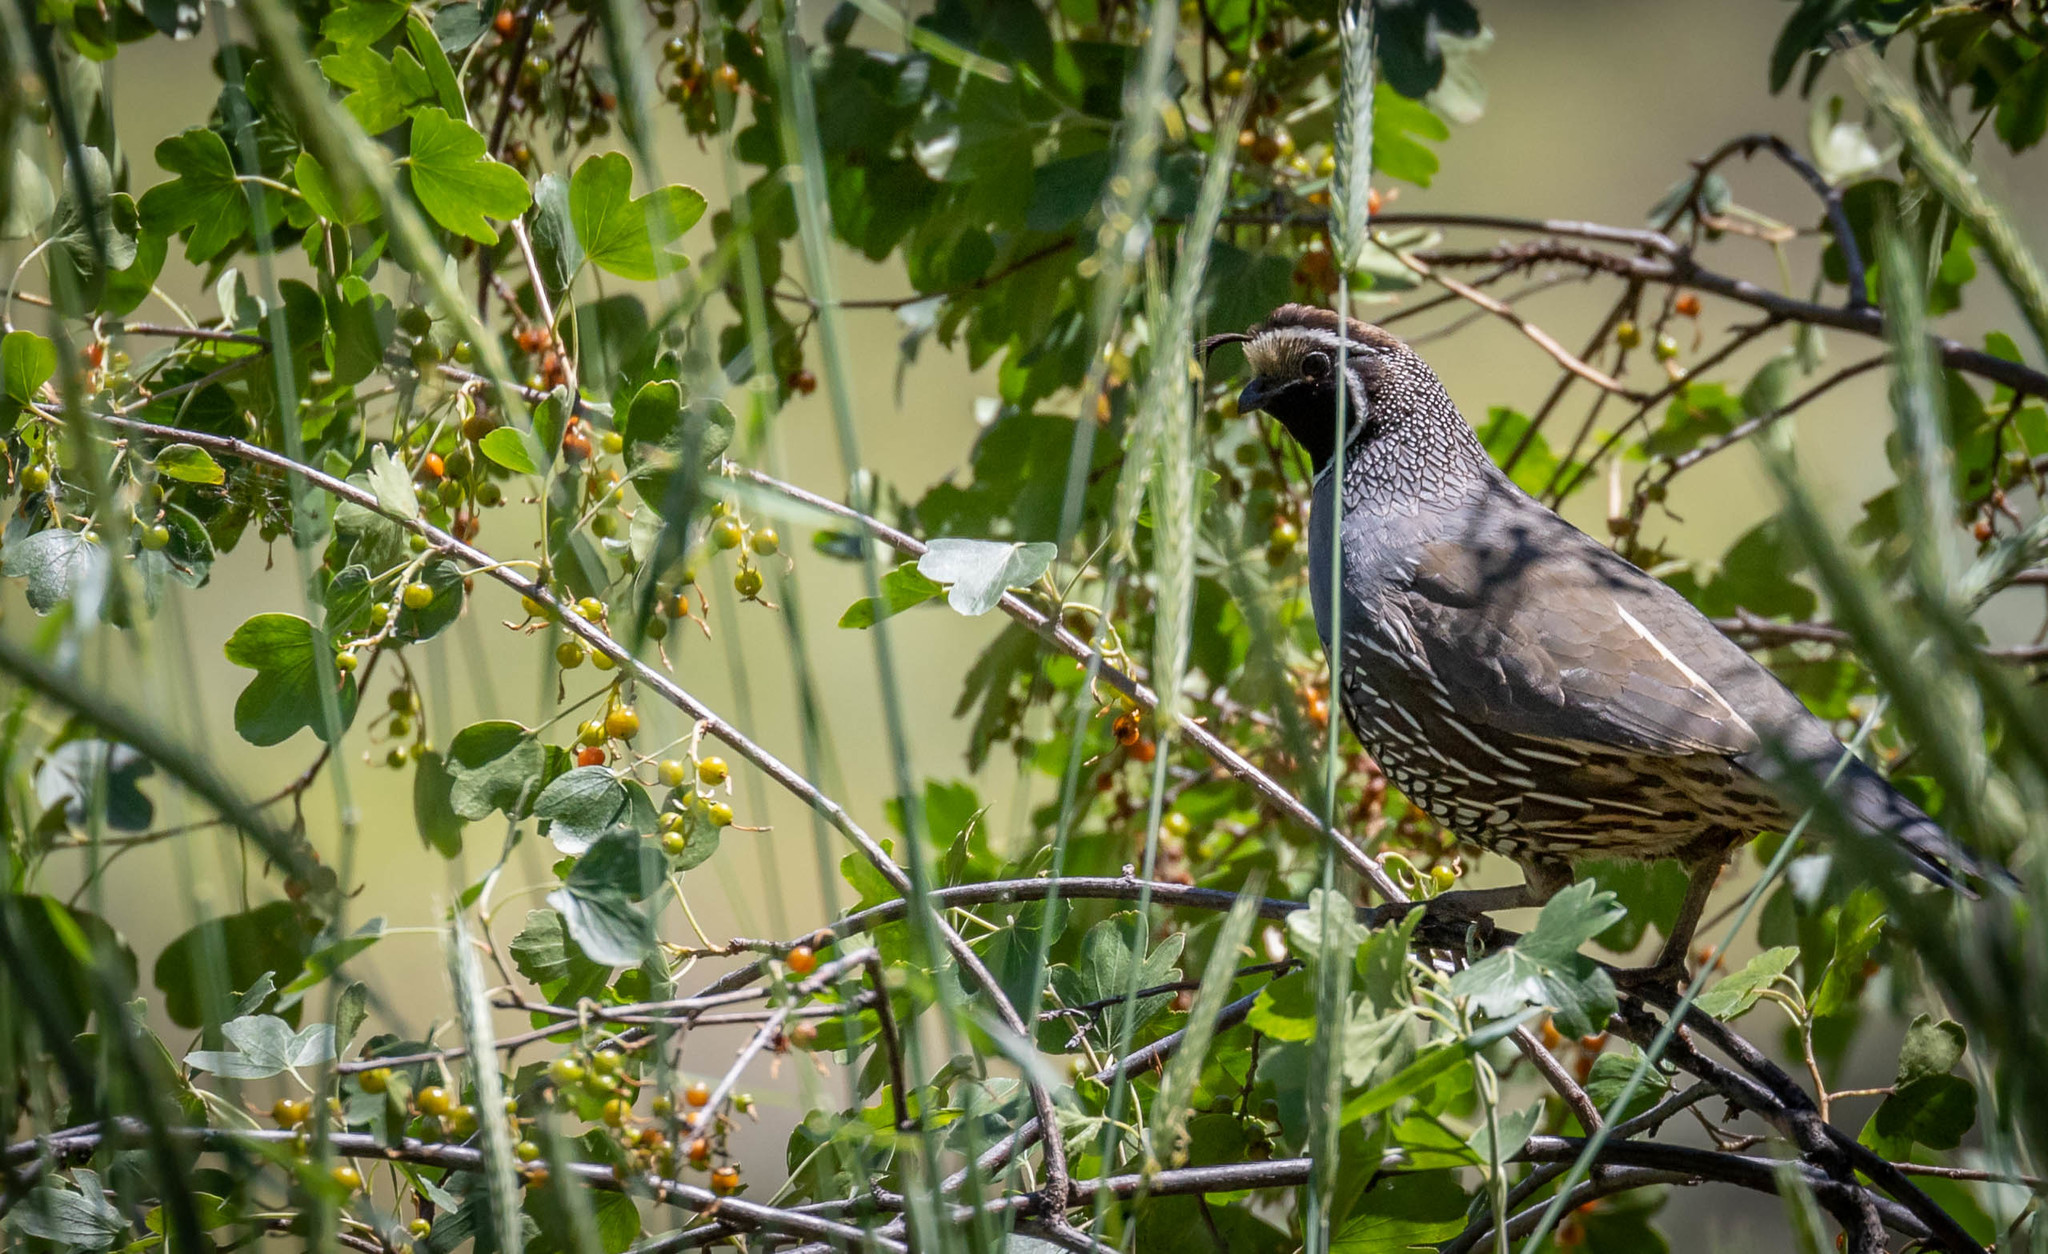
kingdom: Animalia
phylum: Chordata
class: Aves
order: Galliformes
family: Odontophoridae
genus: Callipepla
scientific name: Callipepla californica
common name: California quail
